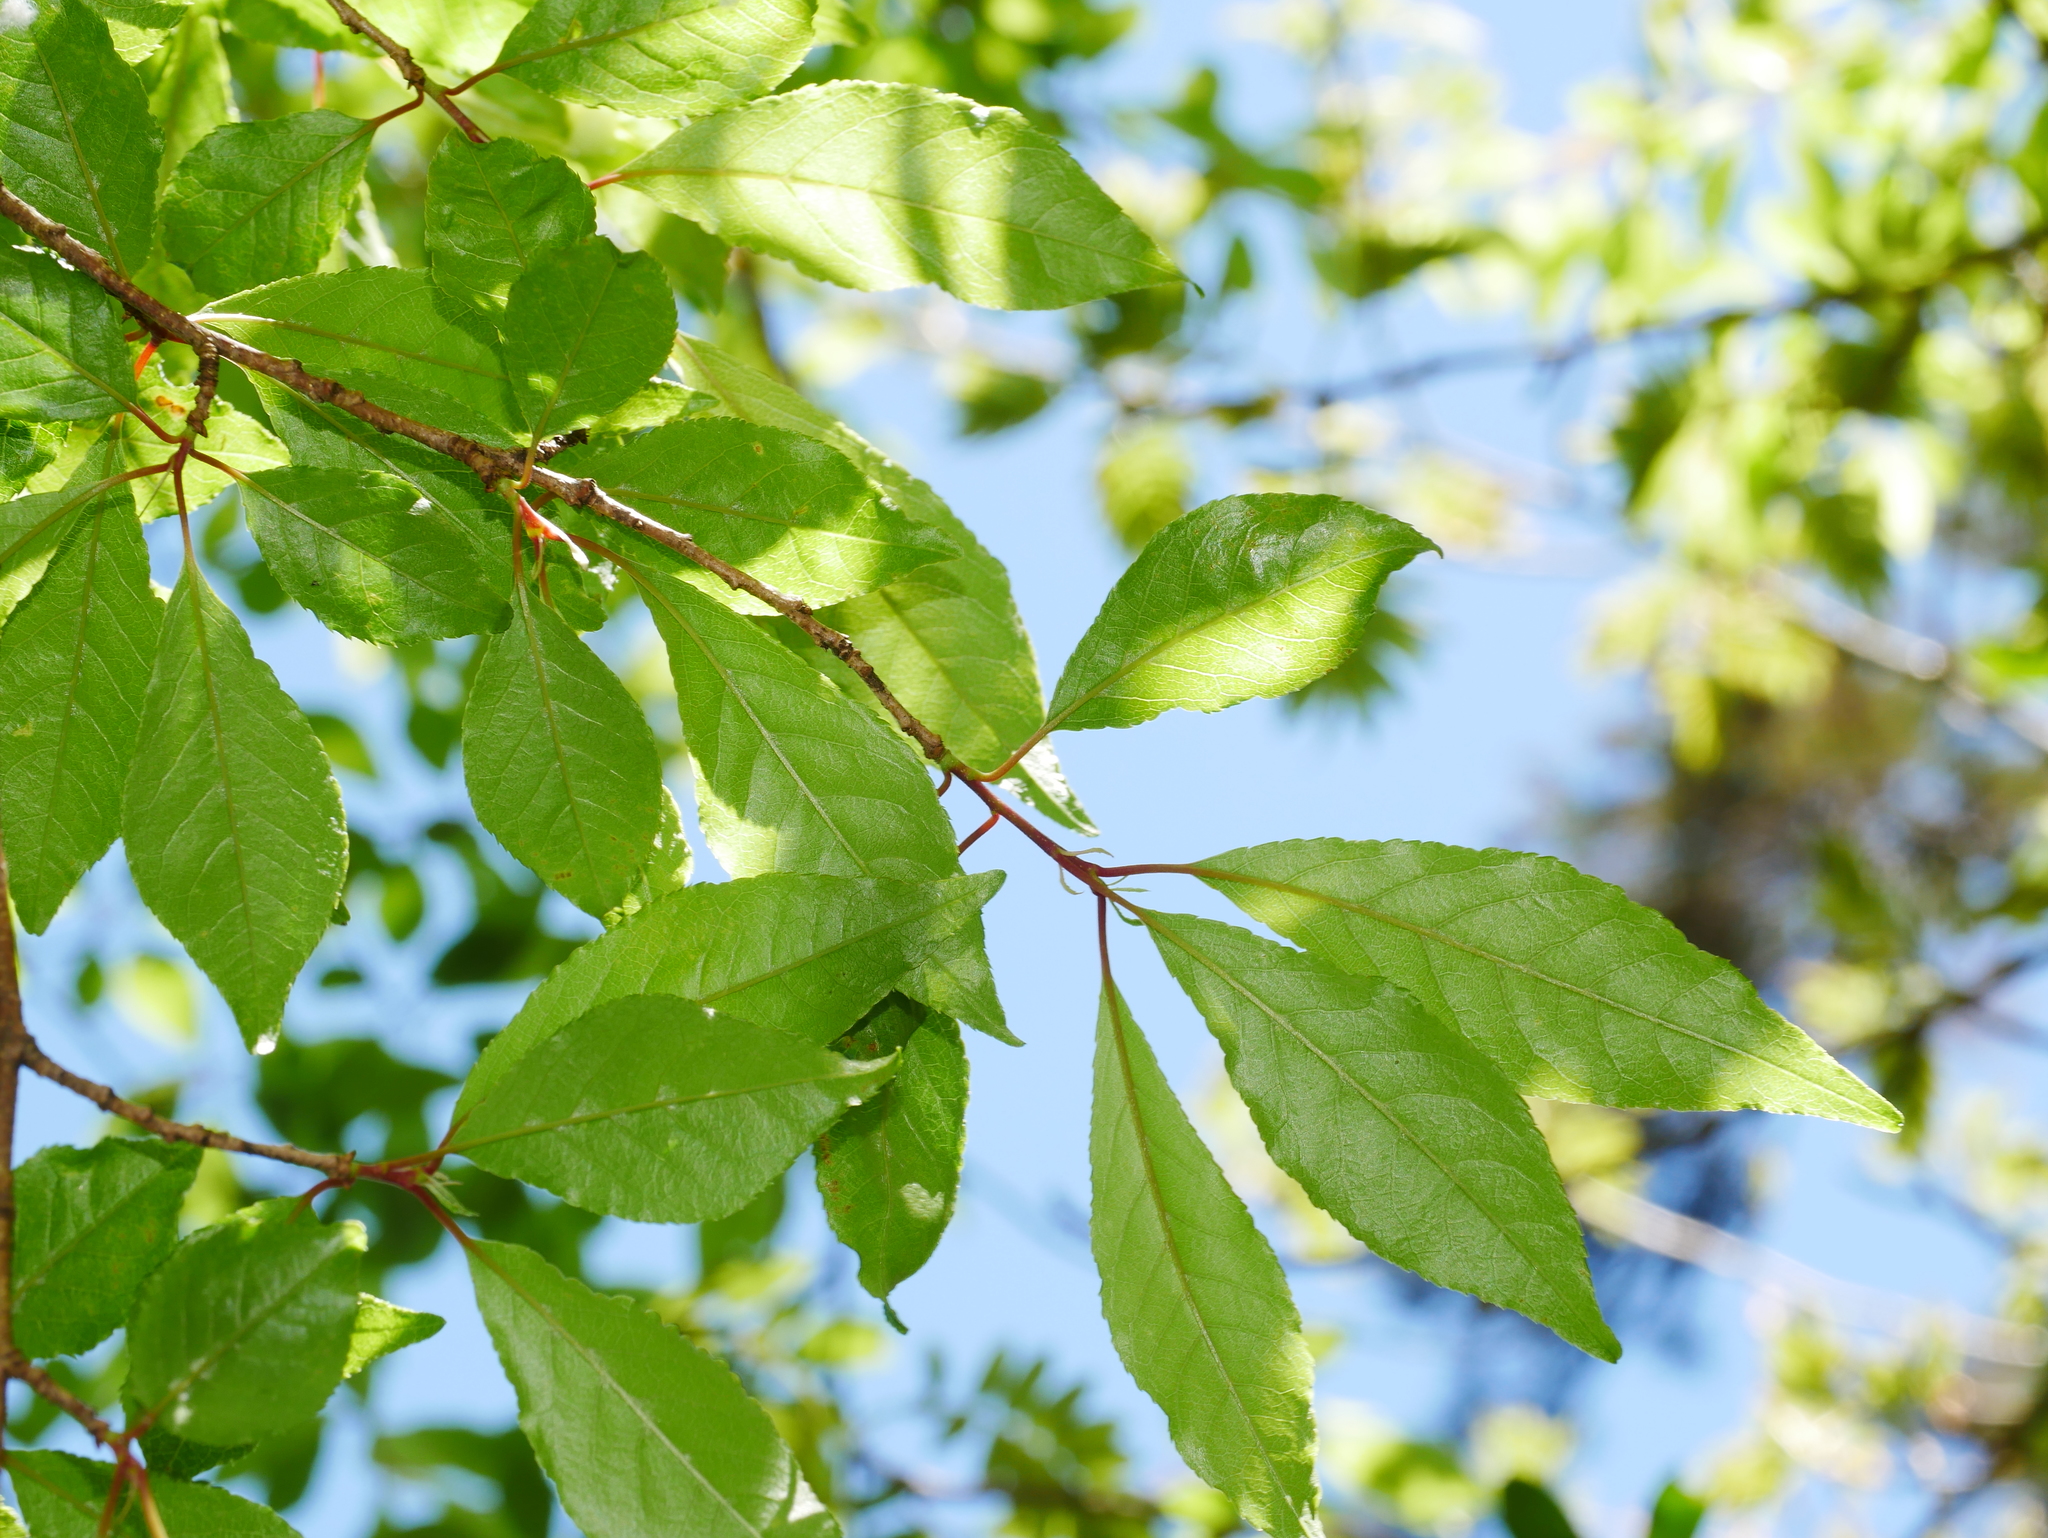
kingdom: Plantae
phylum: Tracheophyta
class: Magnoliopsida
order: Rosales
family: Rosaceae
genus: Prunus
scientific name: Prunus buergeriana
